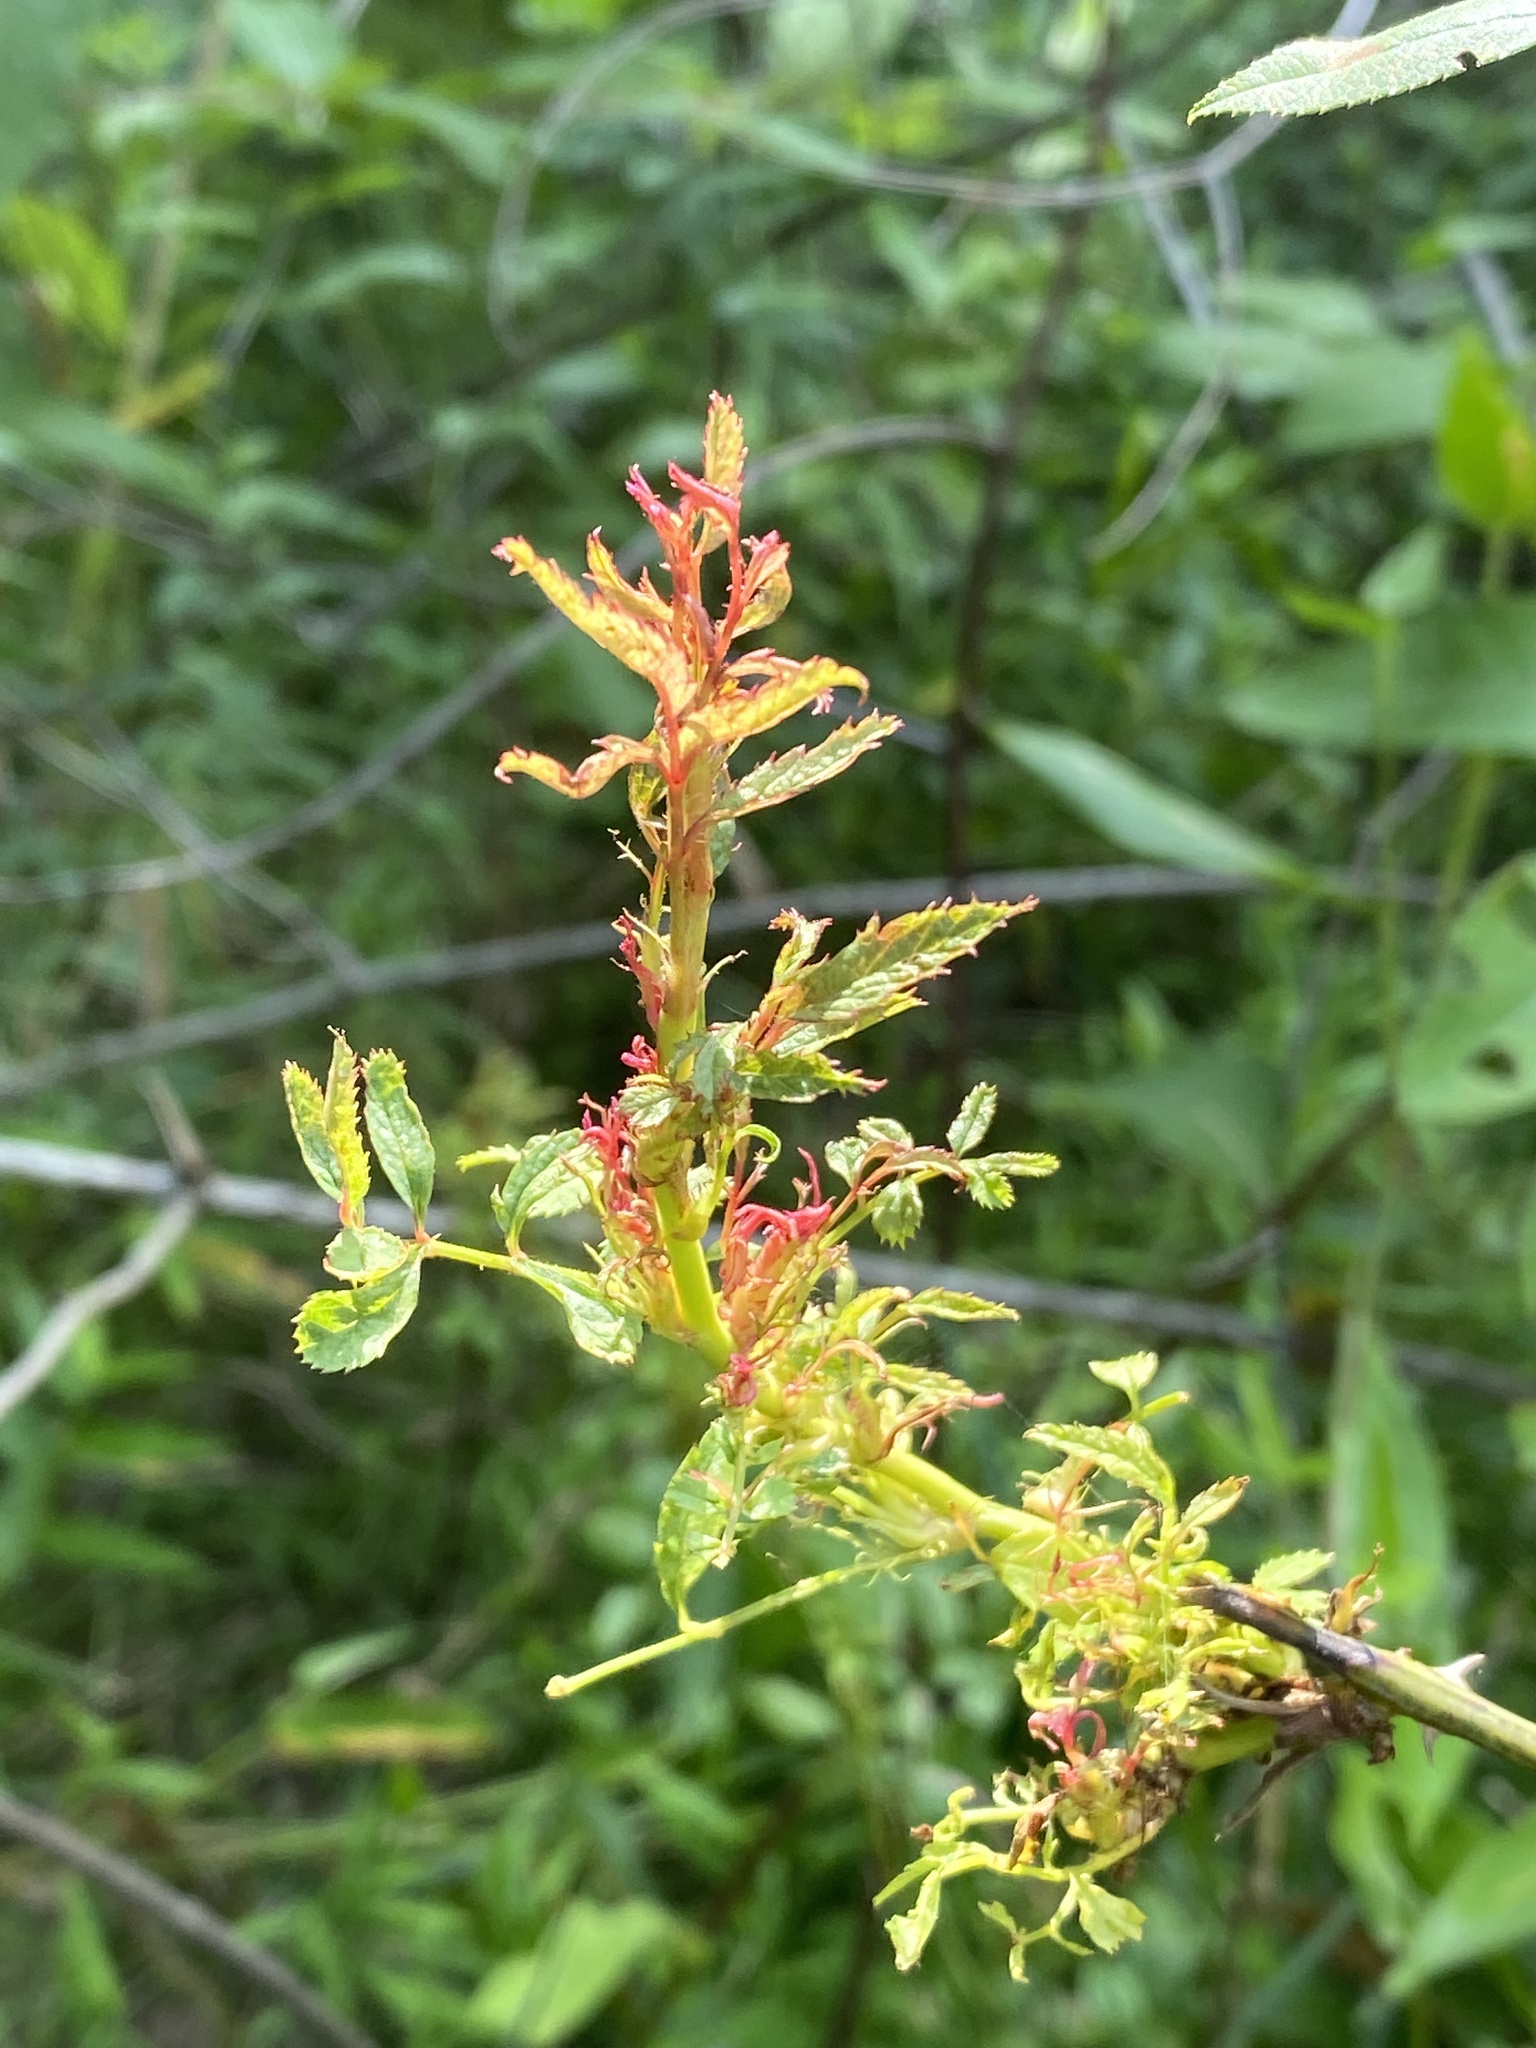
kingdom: Viruses
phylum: Negarnaviricota
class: Ellioviricetes
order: Bunyavirales
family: Fimoviridae
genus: Emaravirus
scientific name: Emaravirus rosae
